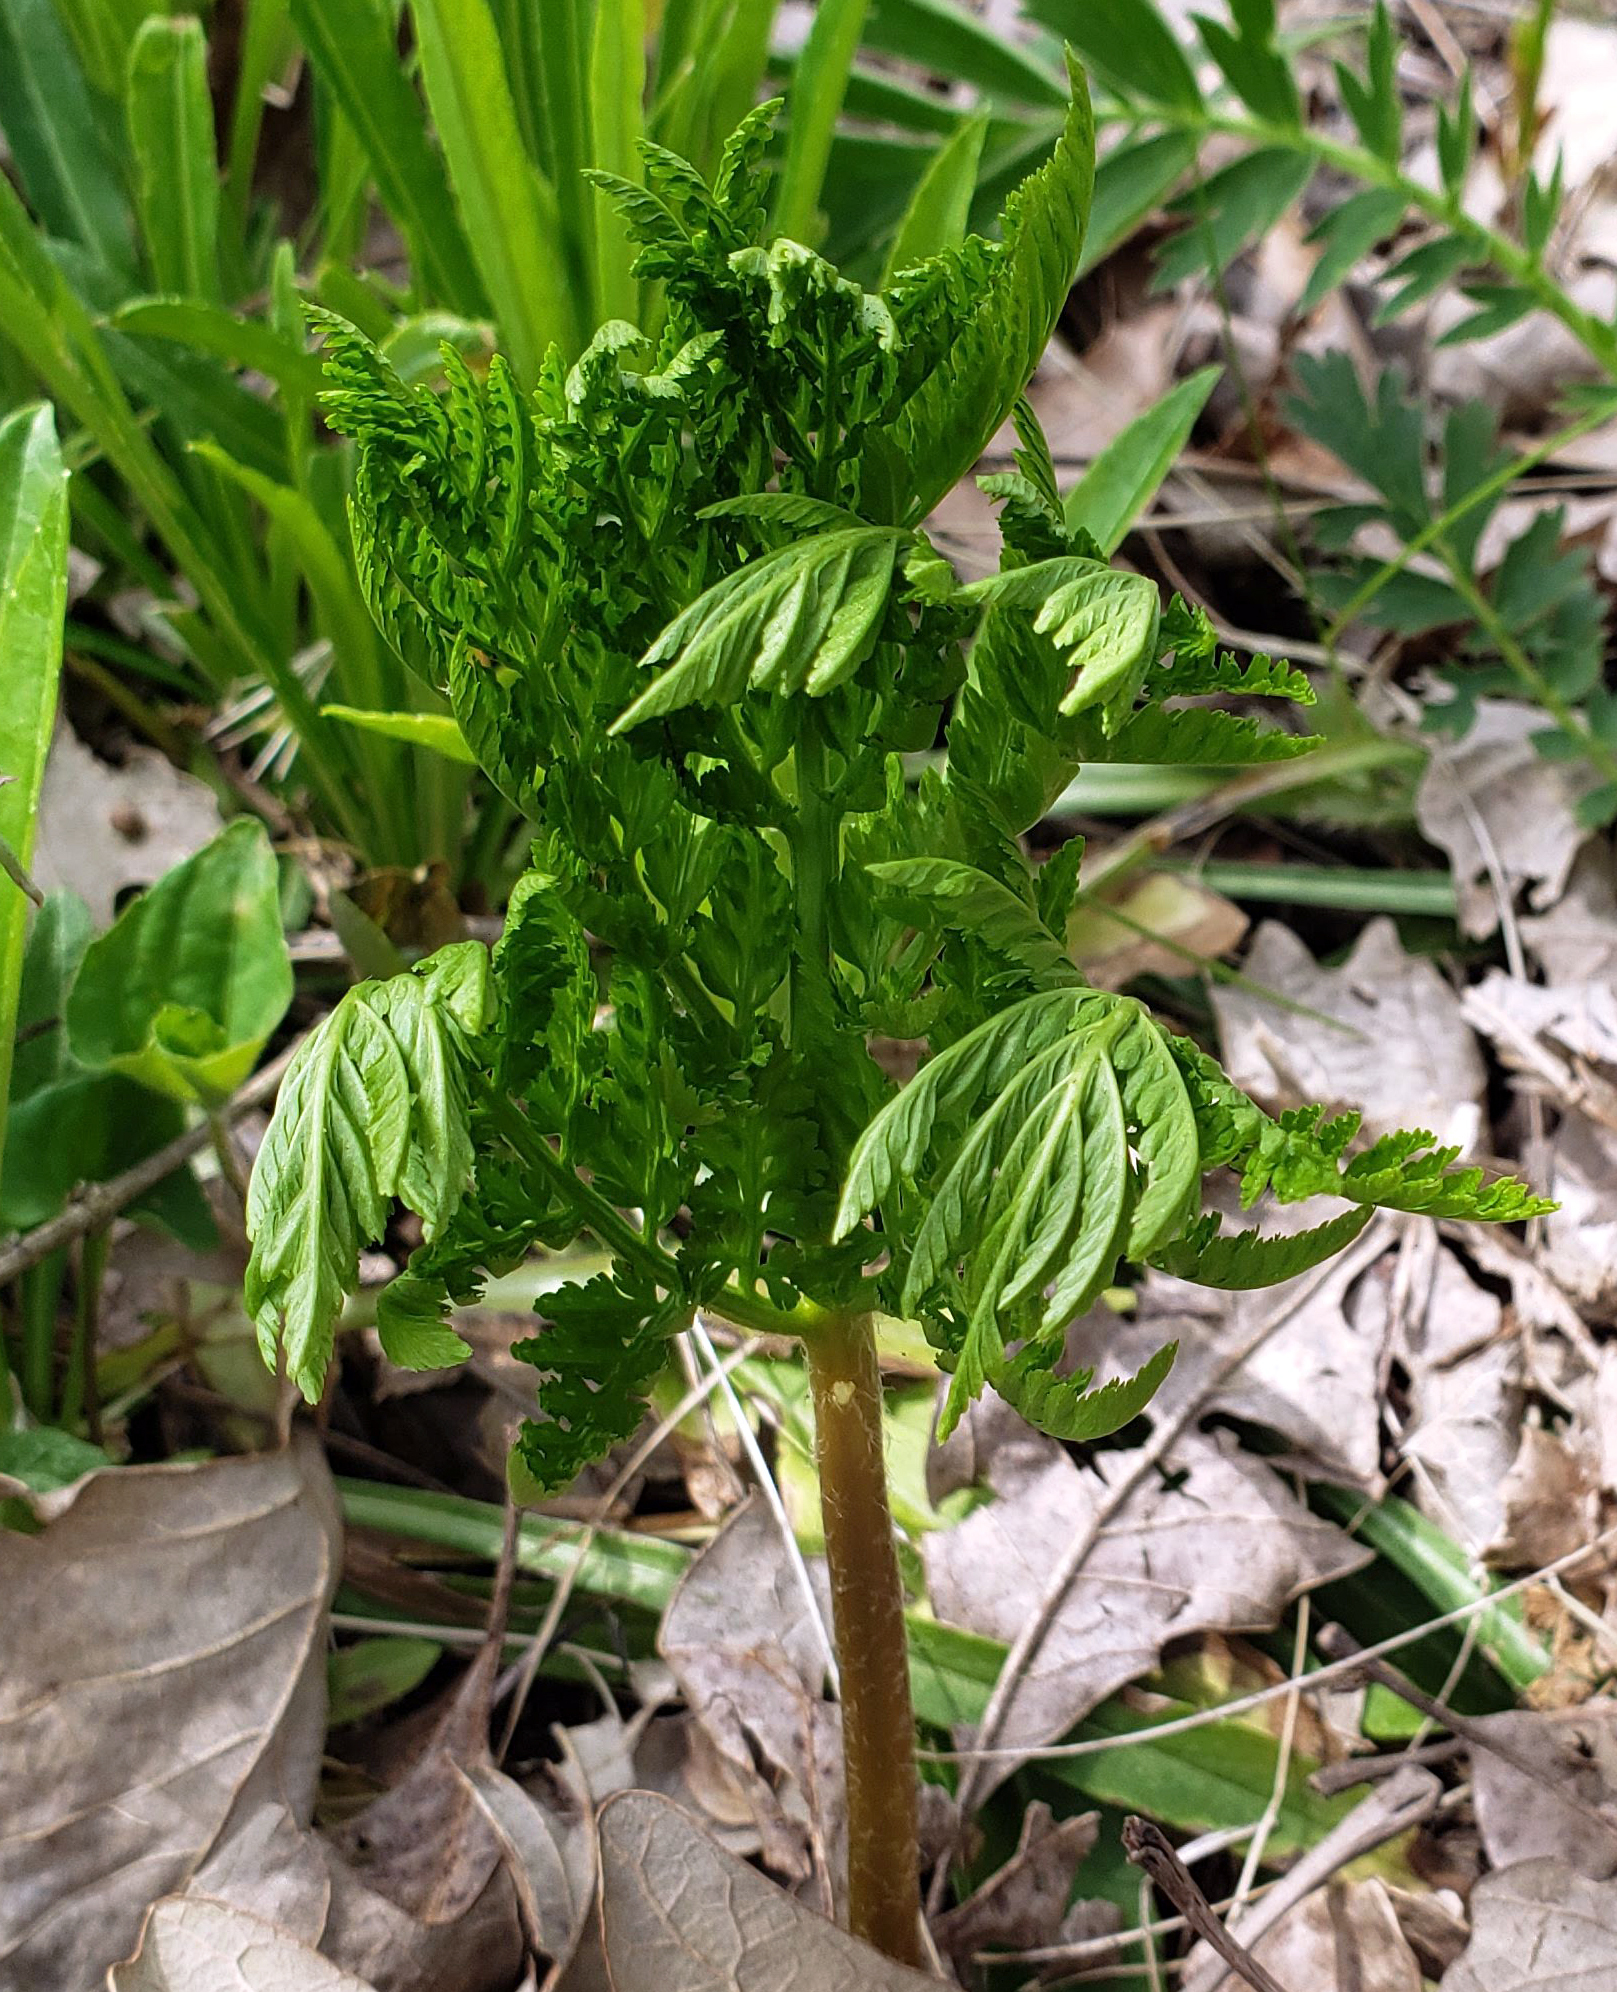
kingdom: Plantae
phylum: Tracheophyta
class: Polypodiopsida
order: Ophioglossales
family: Ophioglossaceae
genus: Botrypus
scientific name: Botrypus virginianus
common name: Common grapefern
